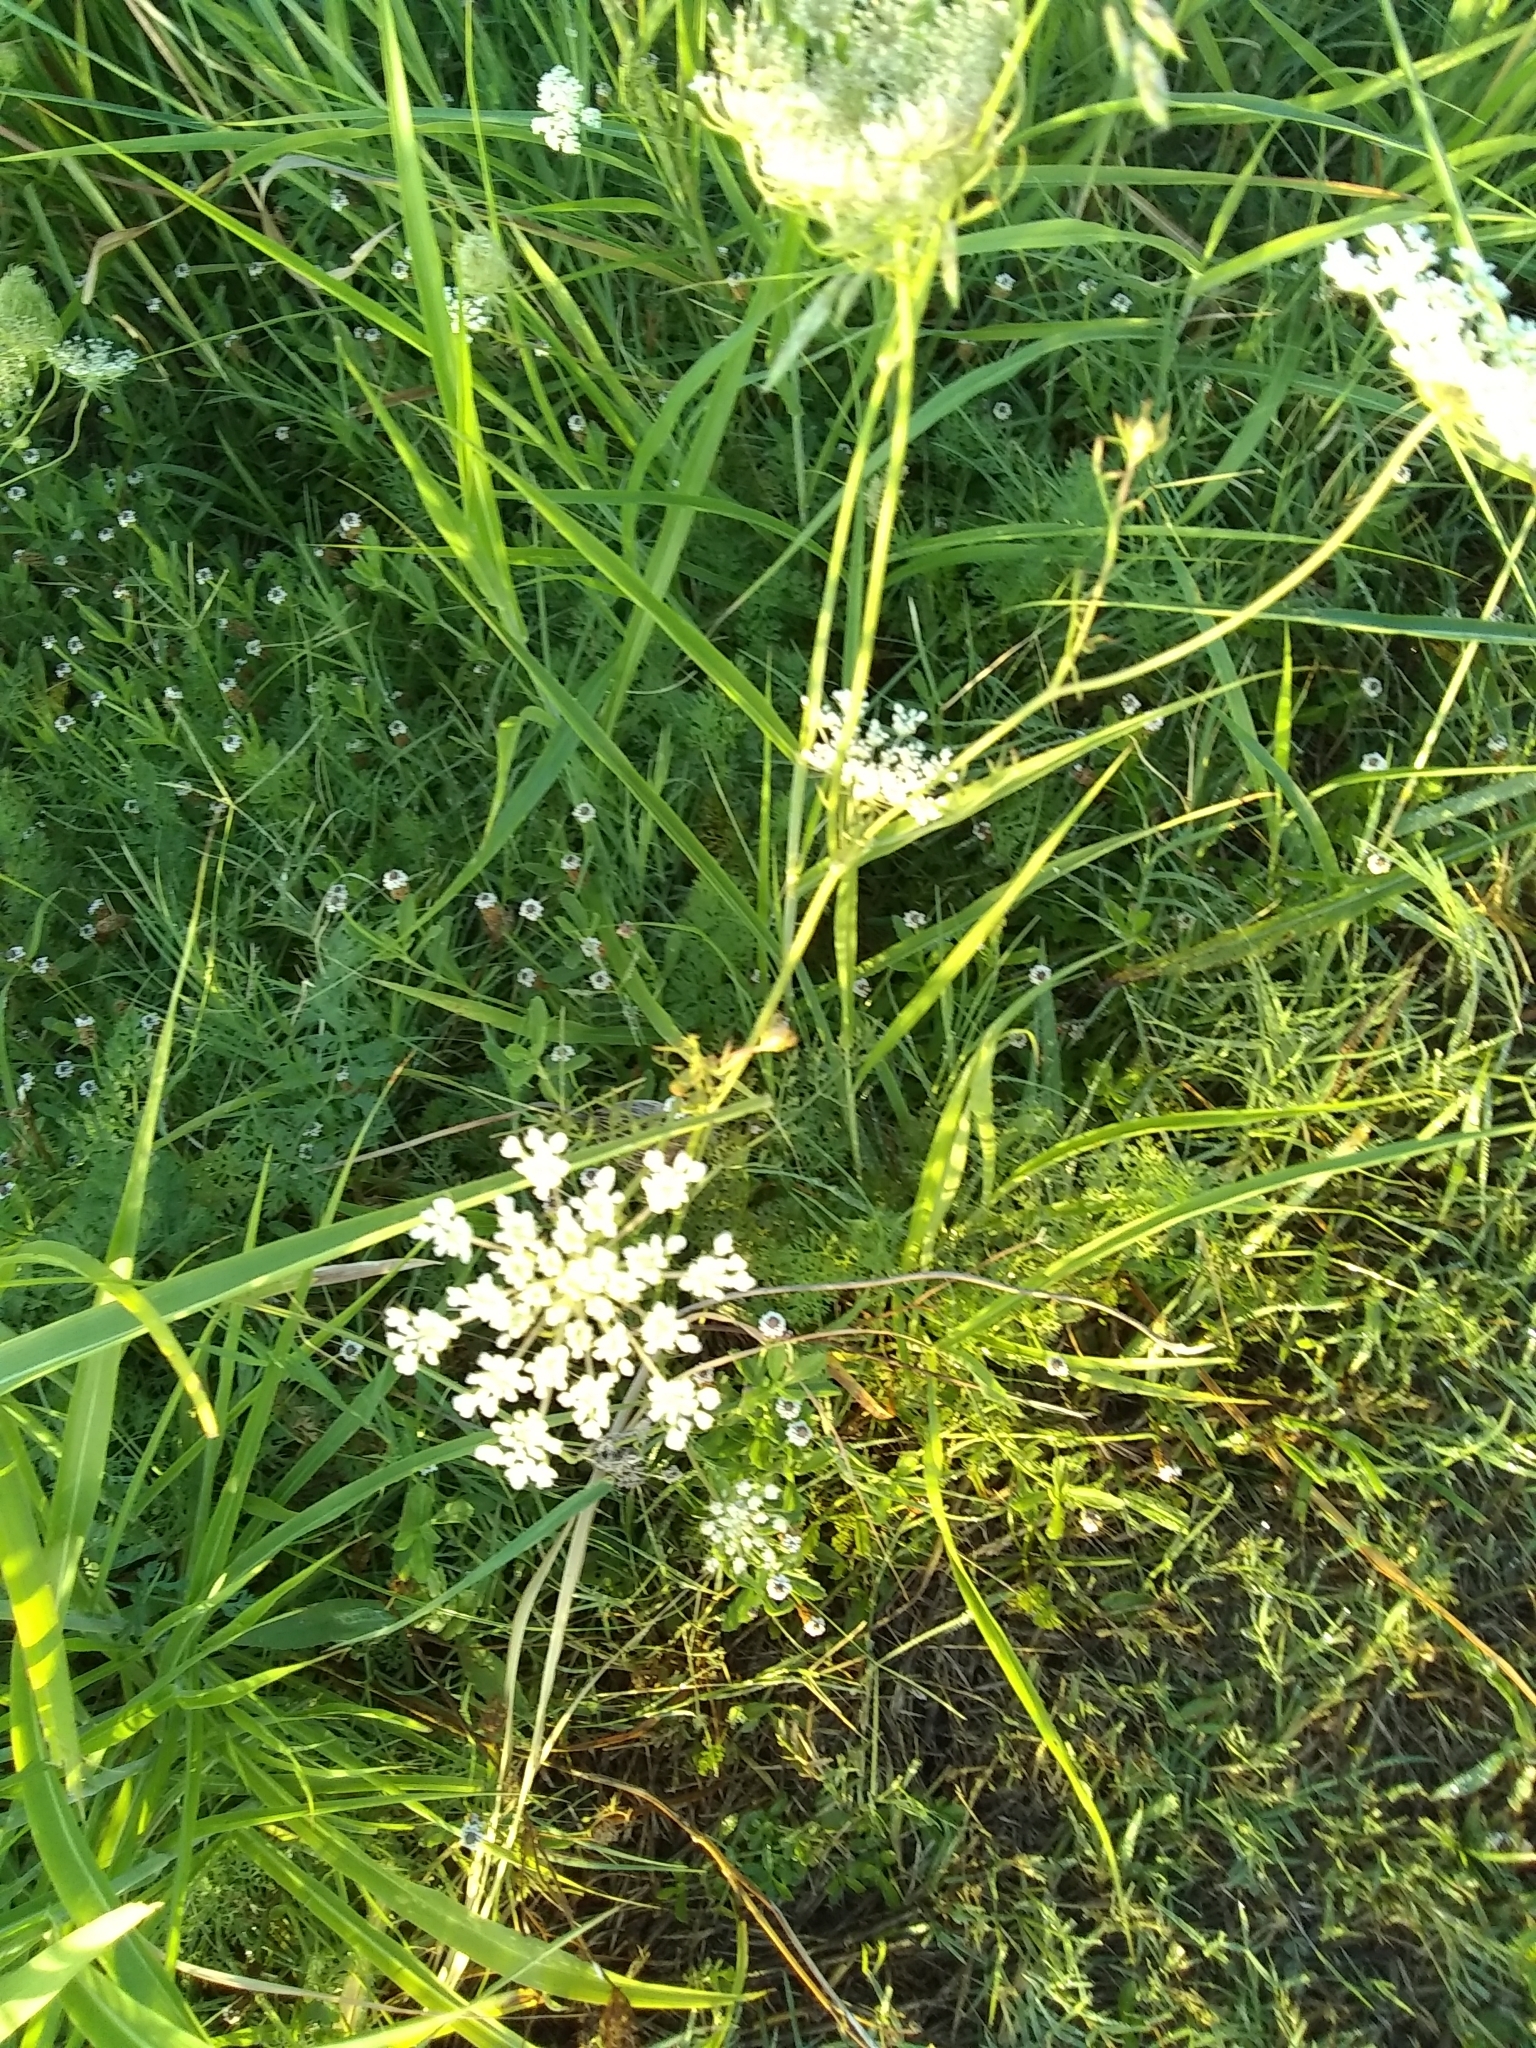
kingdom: Plantae
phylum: Tracheophyta
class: Magnoliopsida
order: Apiales
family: Apiaceae
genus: Daucus
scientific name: Daucus carota
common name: Wild carrot
